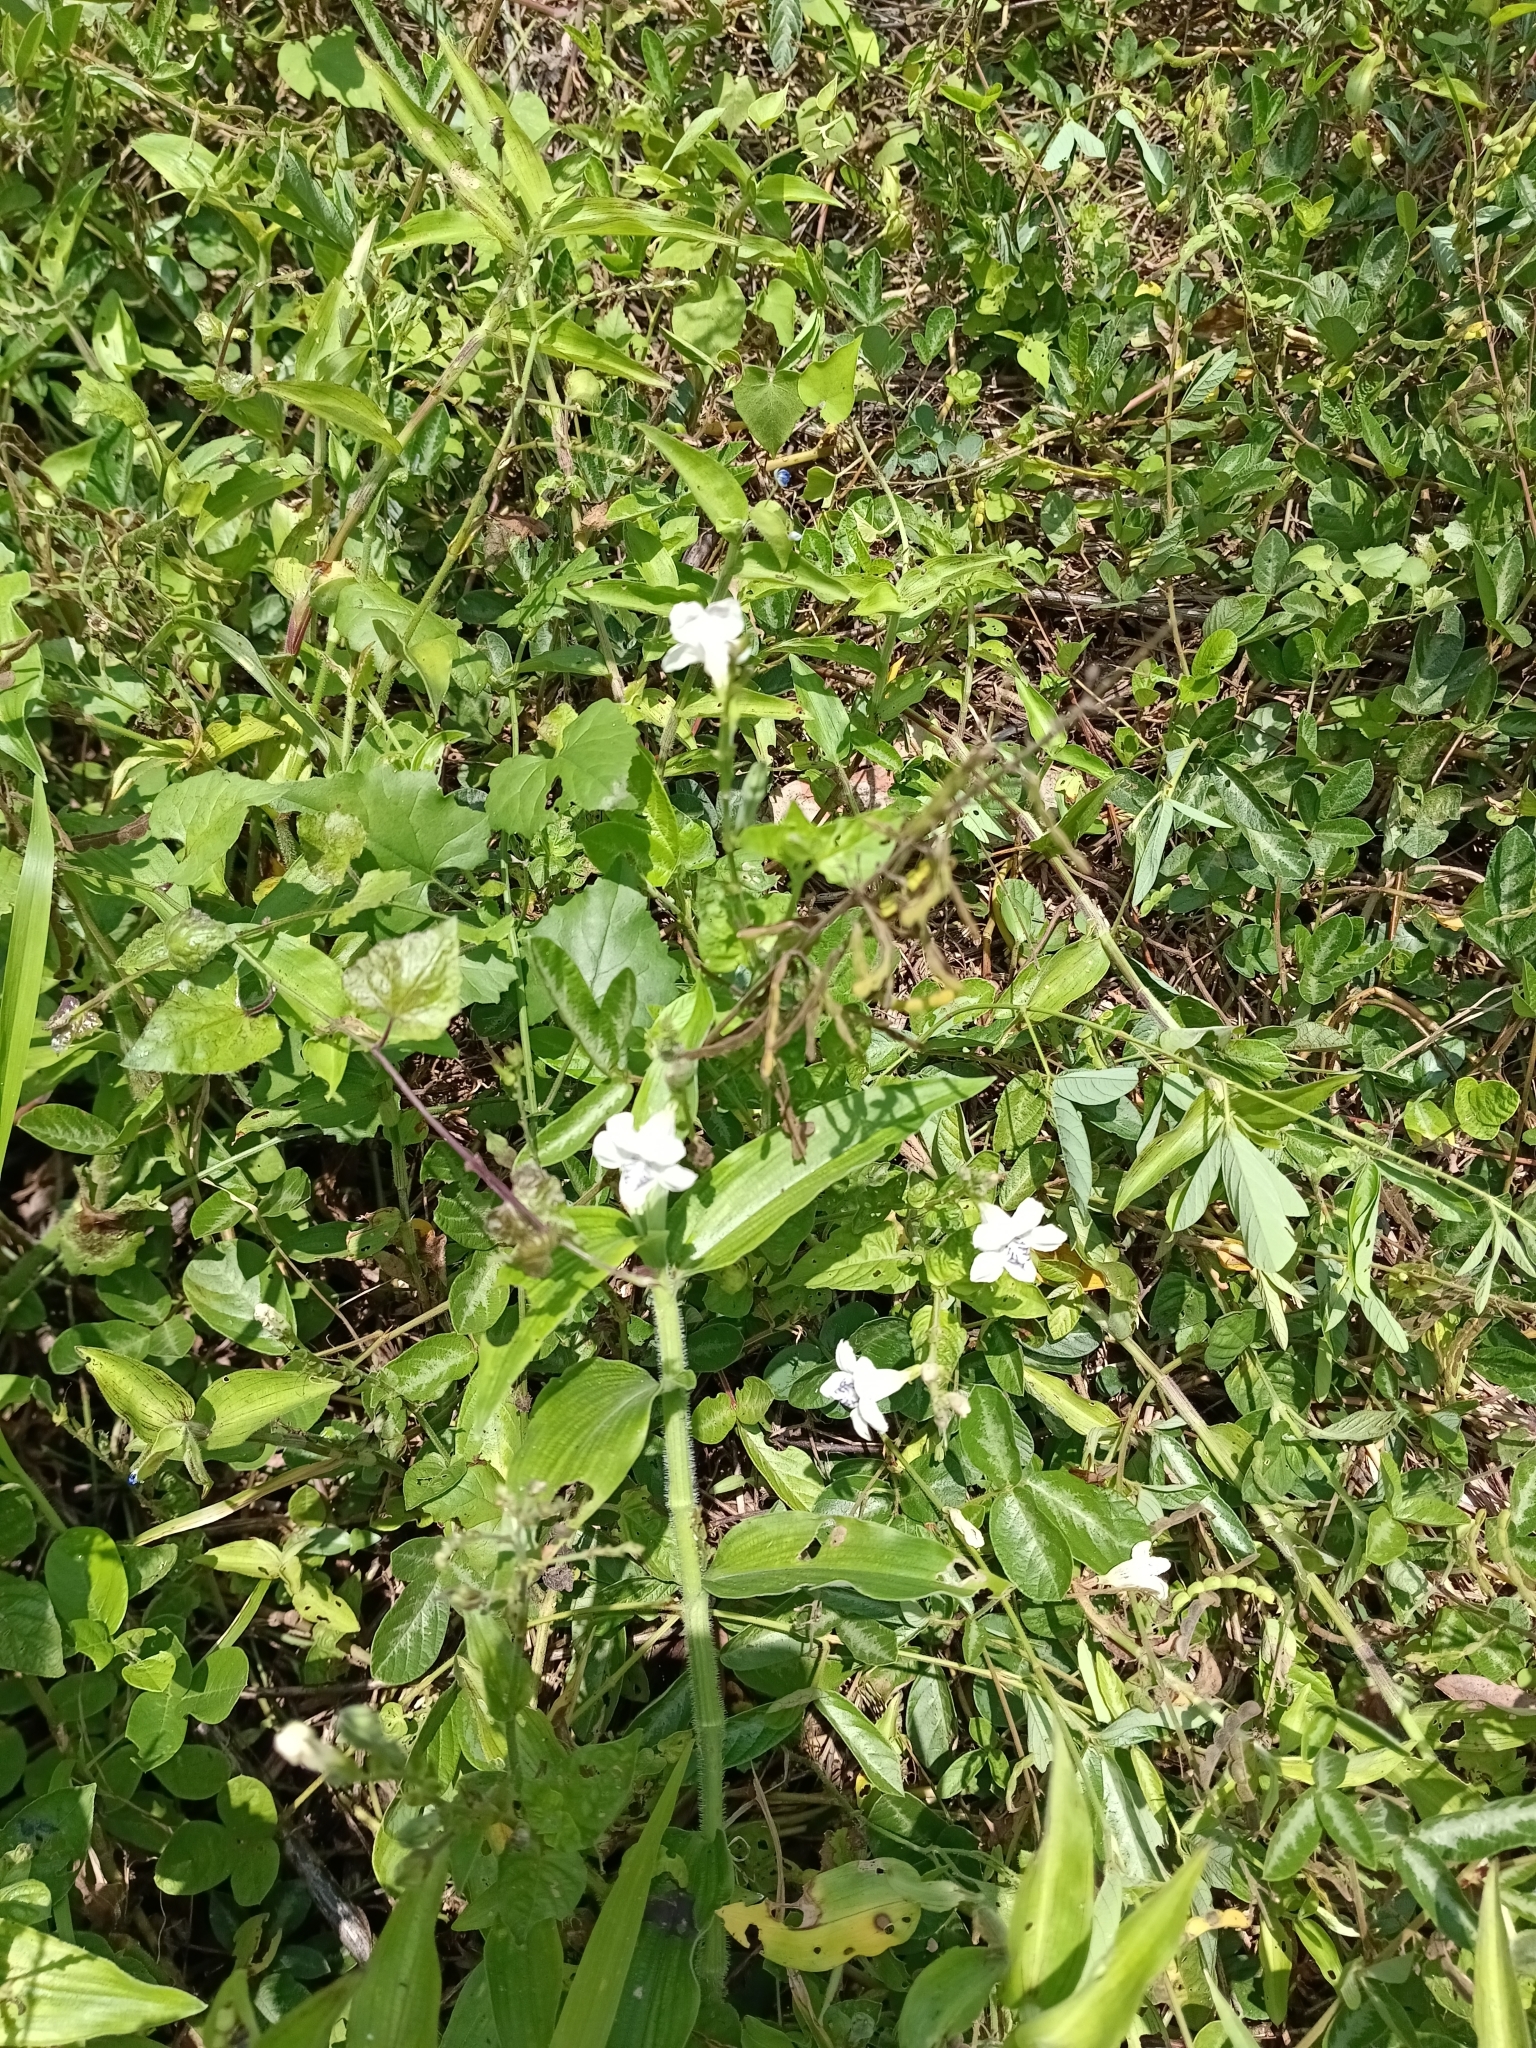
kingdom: Plantae
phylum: Tracheophyta
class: Magnoliopsida
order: Lamiales
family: Acanthaceae
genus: Asystasia
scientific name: Asystasia intrusa
